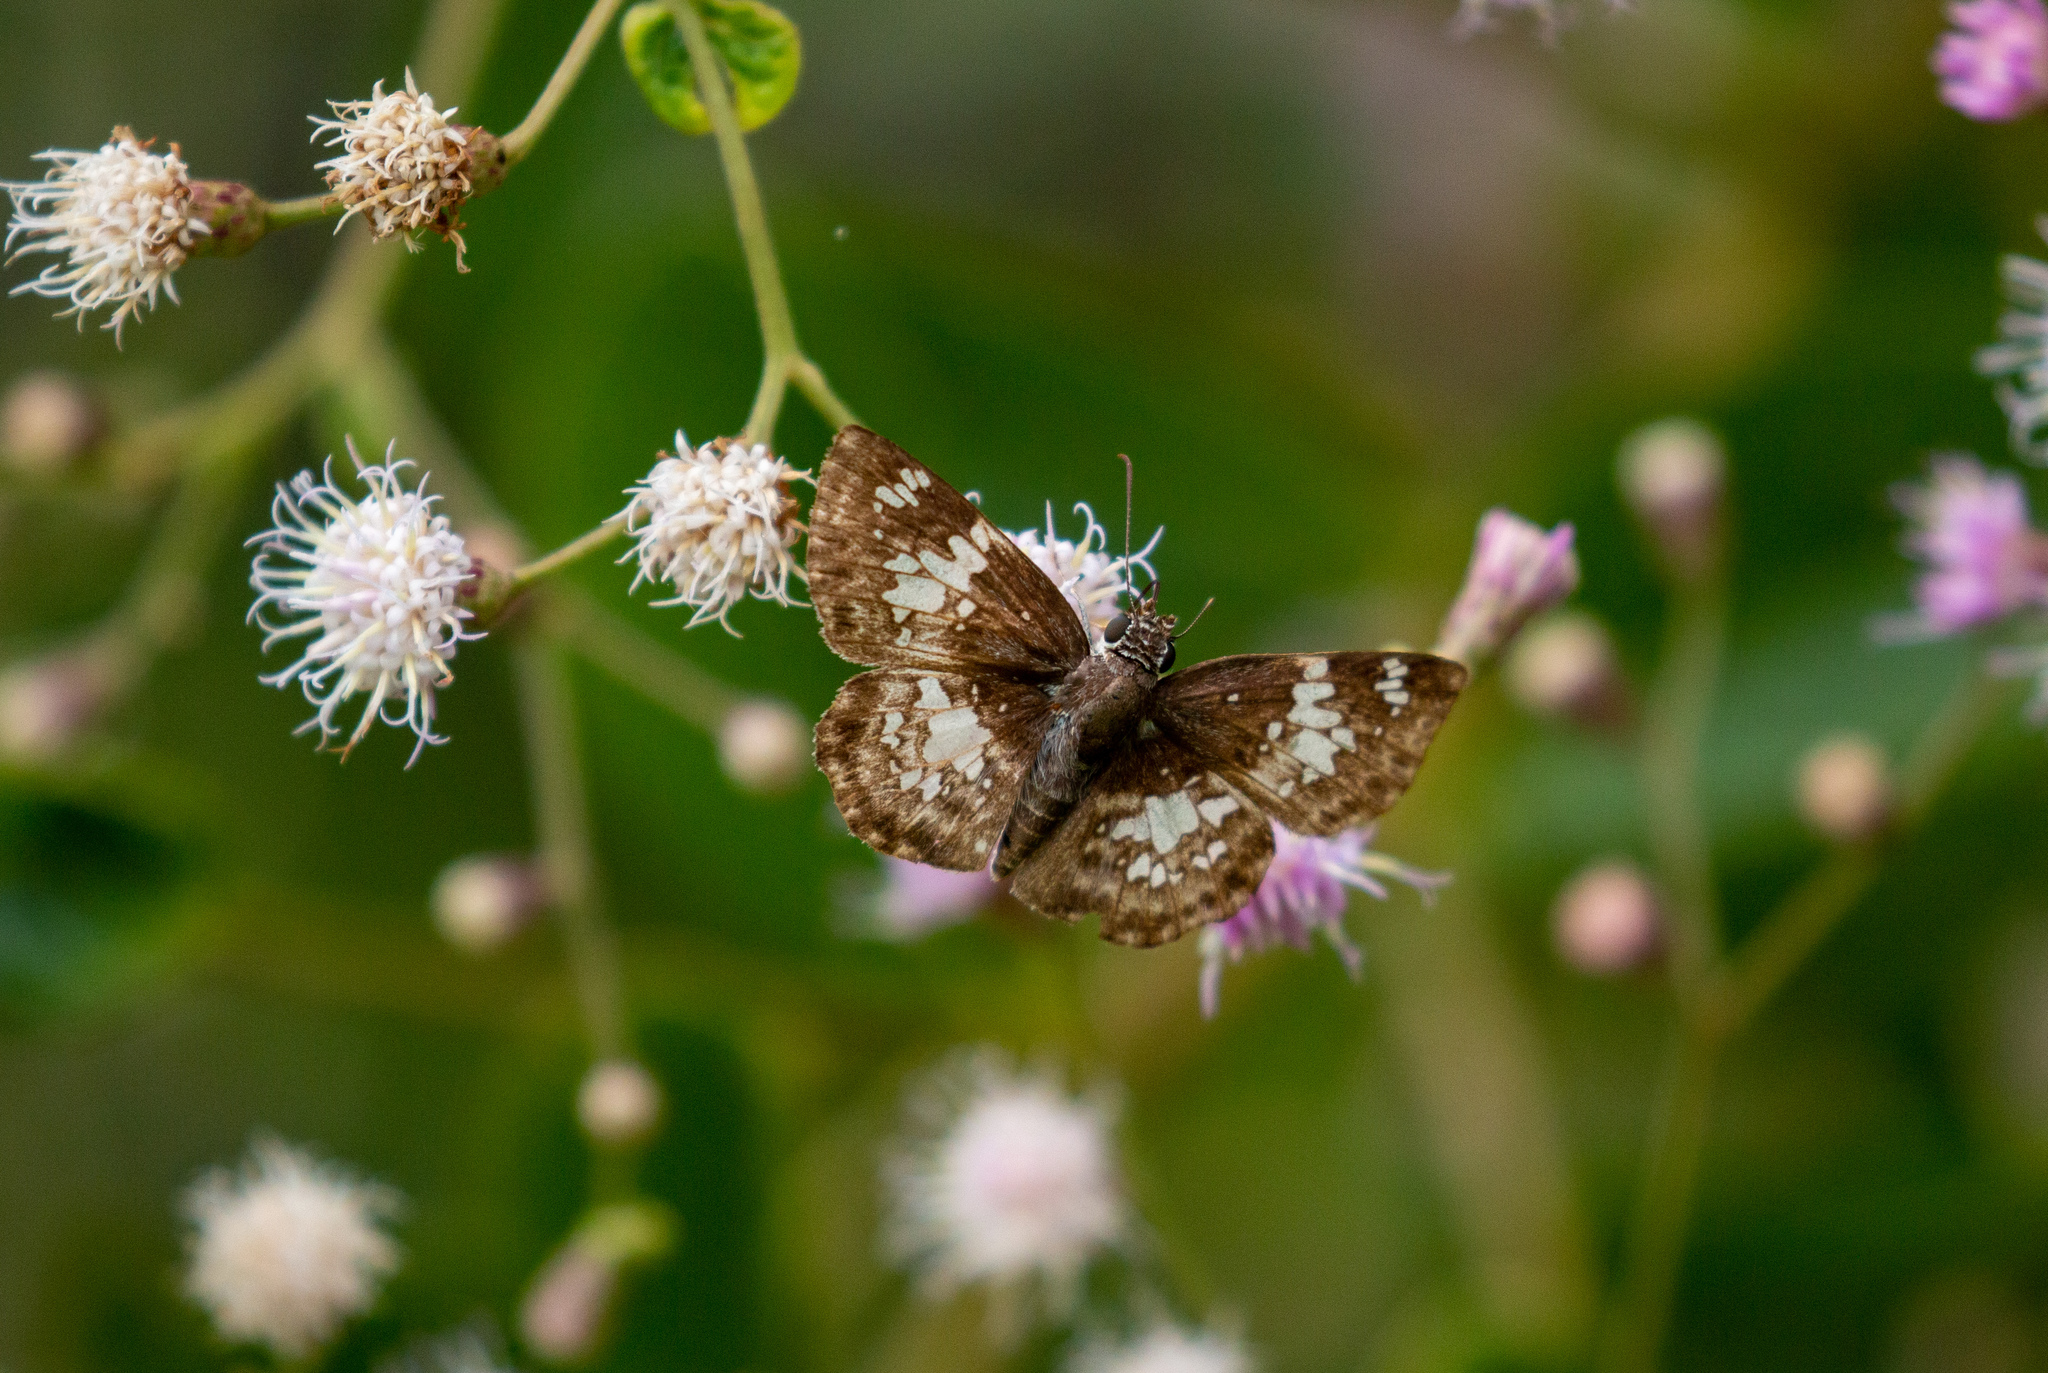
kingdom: Animalia
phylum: Arthropoda
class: Insecta
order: Lepidoptera
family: Hesperiidae
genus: Xenophanes
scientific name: Xenophanes tryxus
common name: Glassy-winged skipper
